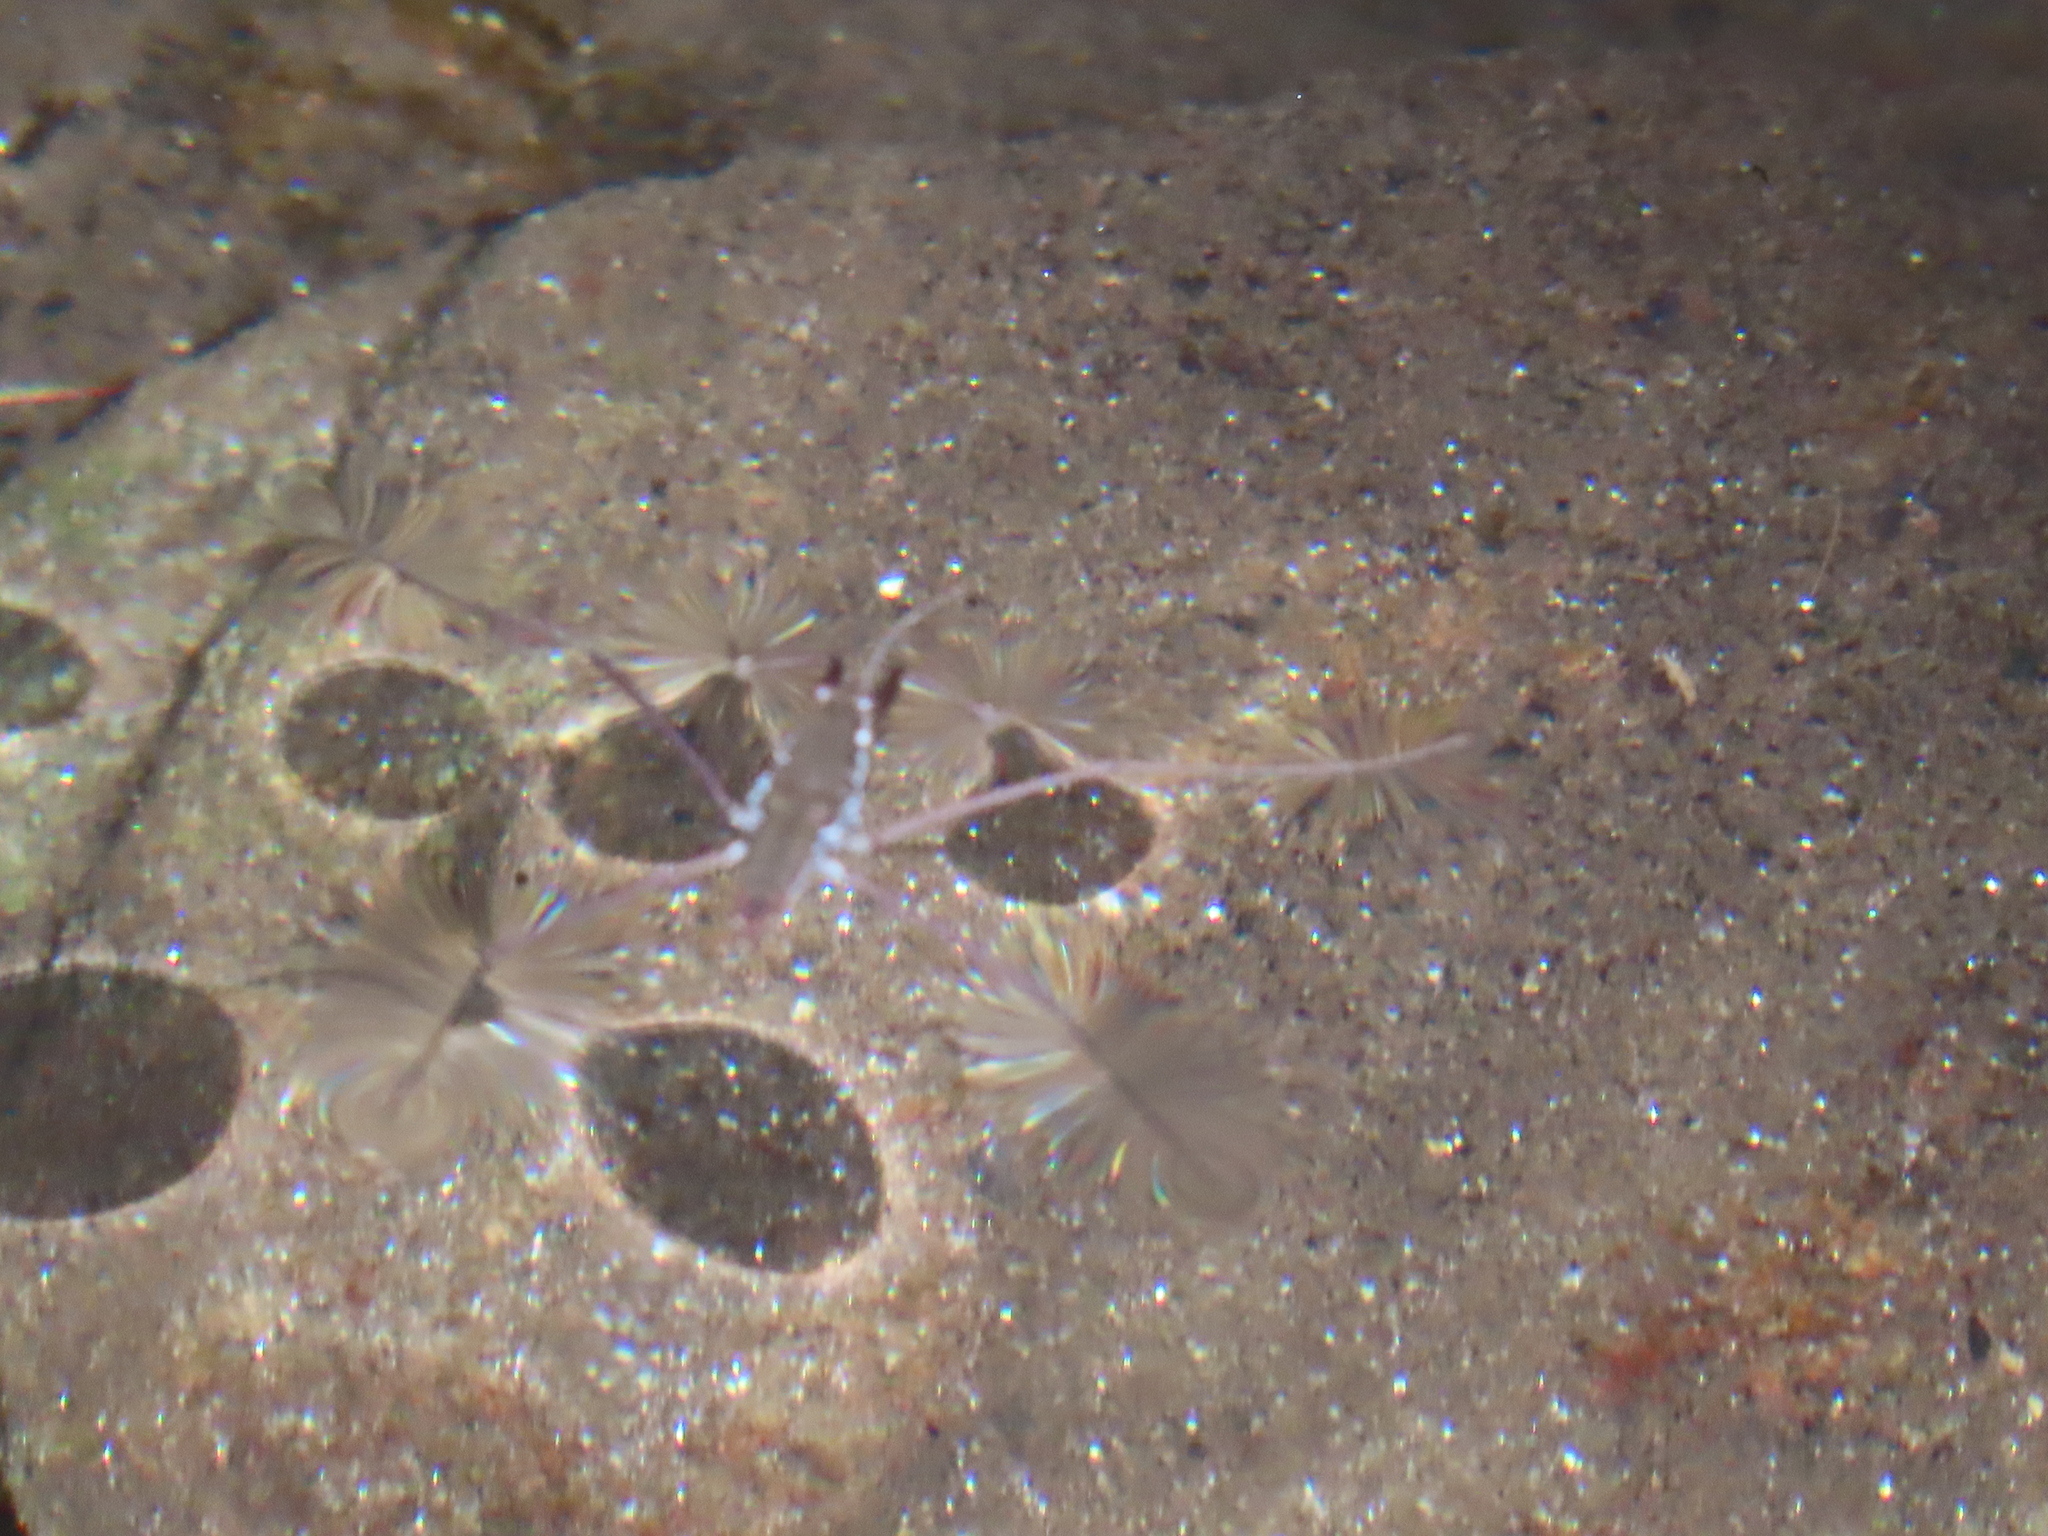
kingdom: Animalia
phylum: Arthropoda
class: Insecta
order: Hemiptera
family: Gerridae
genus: Aquarius
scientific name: Aquarius
